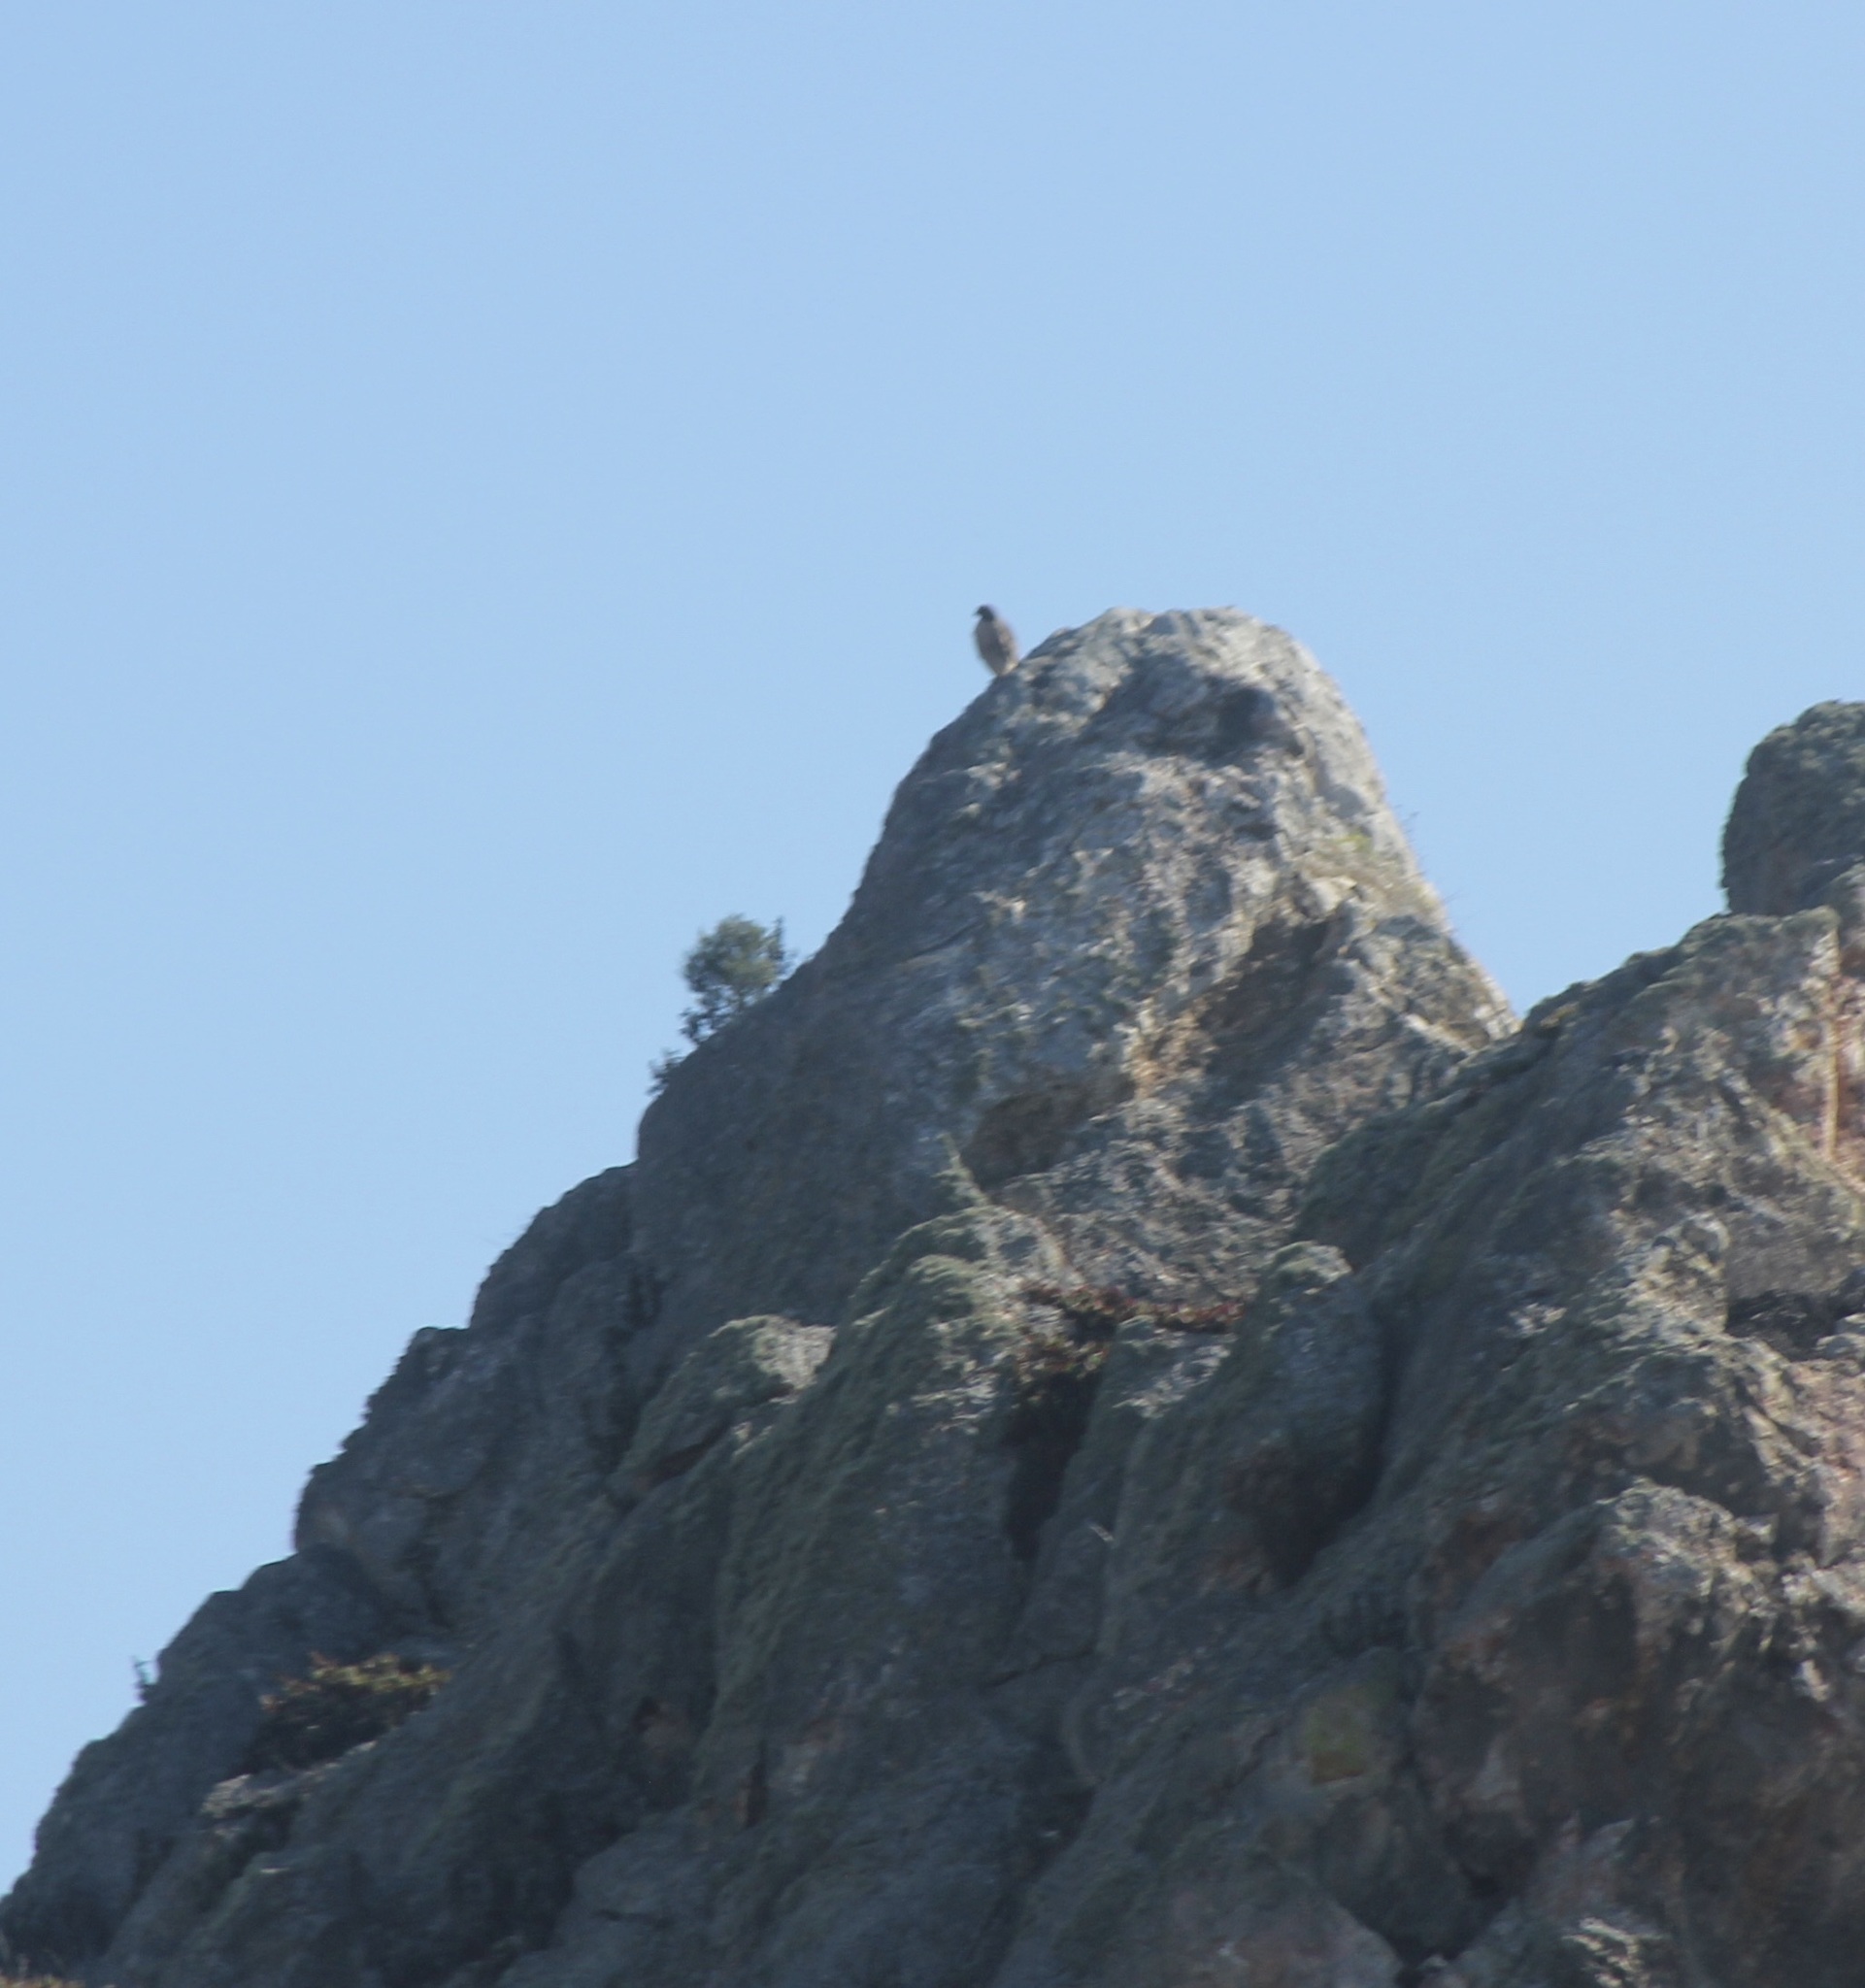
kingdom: Animalia
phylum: Chordata
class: Aves
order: Falconiformes
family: Falconidae
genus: Falco
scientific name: Falco peregrinus
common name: Peregrine falcon
